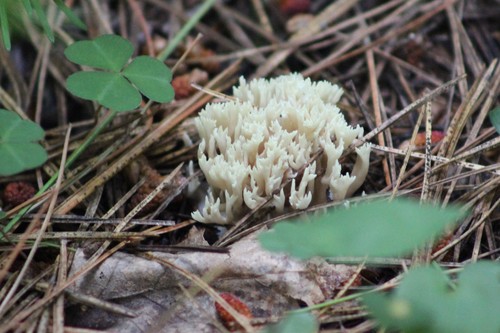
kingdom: Fungi
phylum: Basidiomycota
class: Agaricomycetes
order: Gomphales
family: Gomphaceae
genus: Ramaria
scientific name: Ramaria
